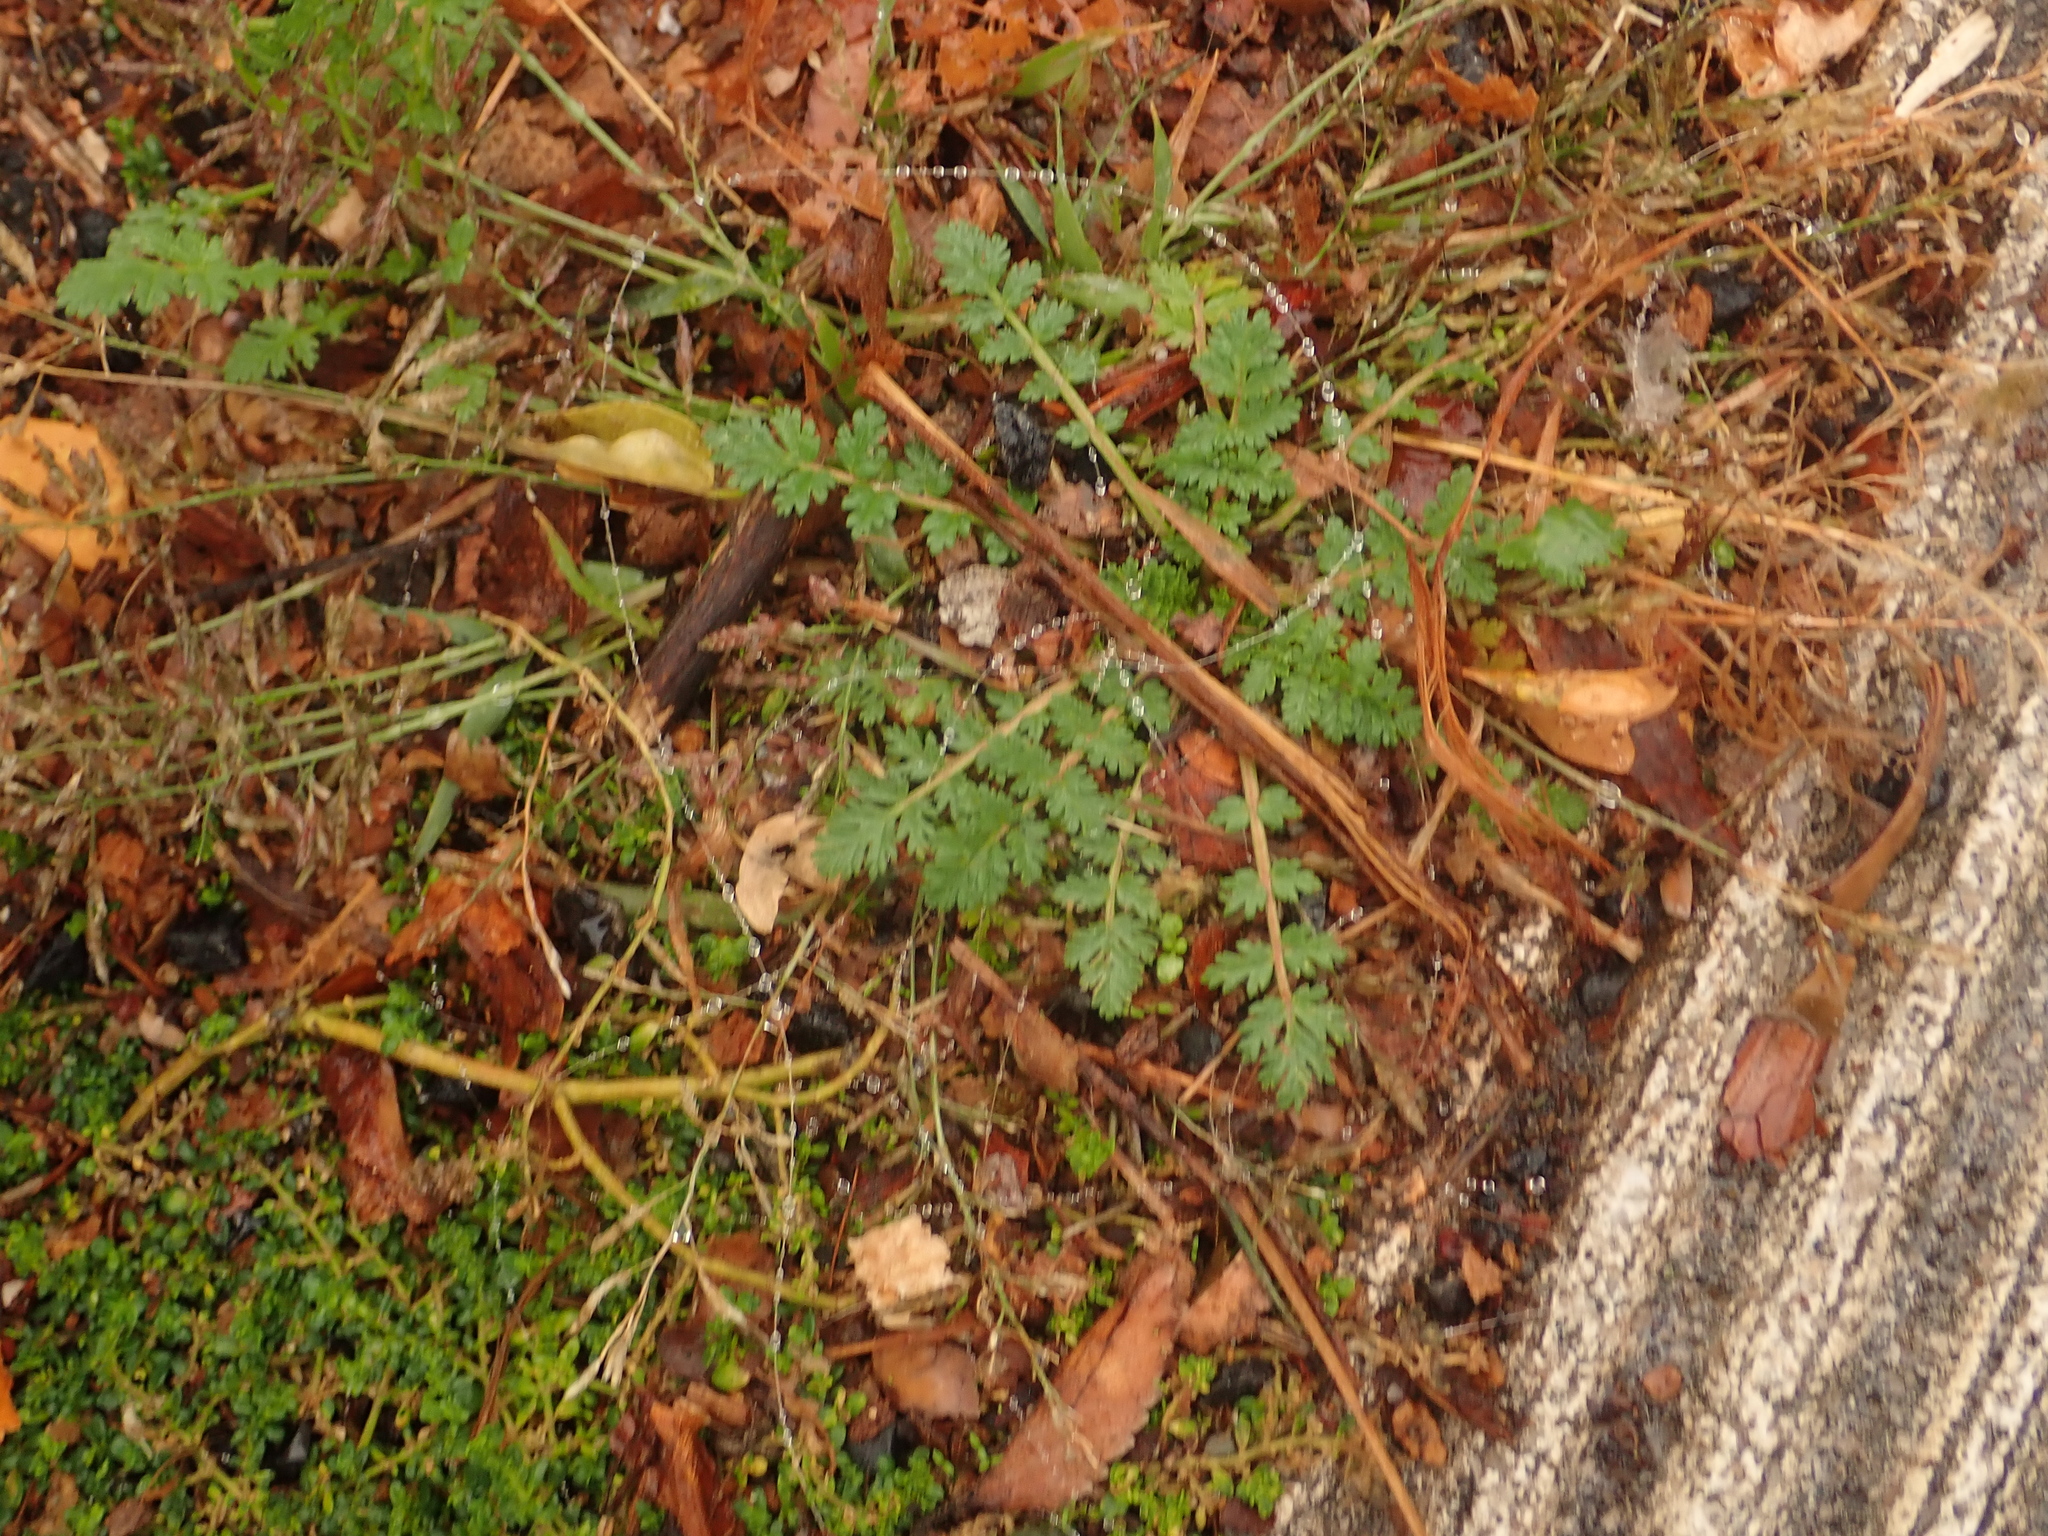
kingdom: Plantae
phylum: Tracheophyta
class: Magnoliopsida
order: Geraniales
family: Geraniaceae
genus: Erodium
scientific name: Erodium cicutarium
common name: Common stork's-bill
